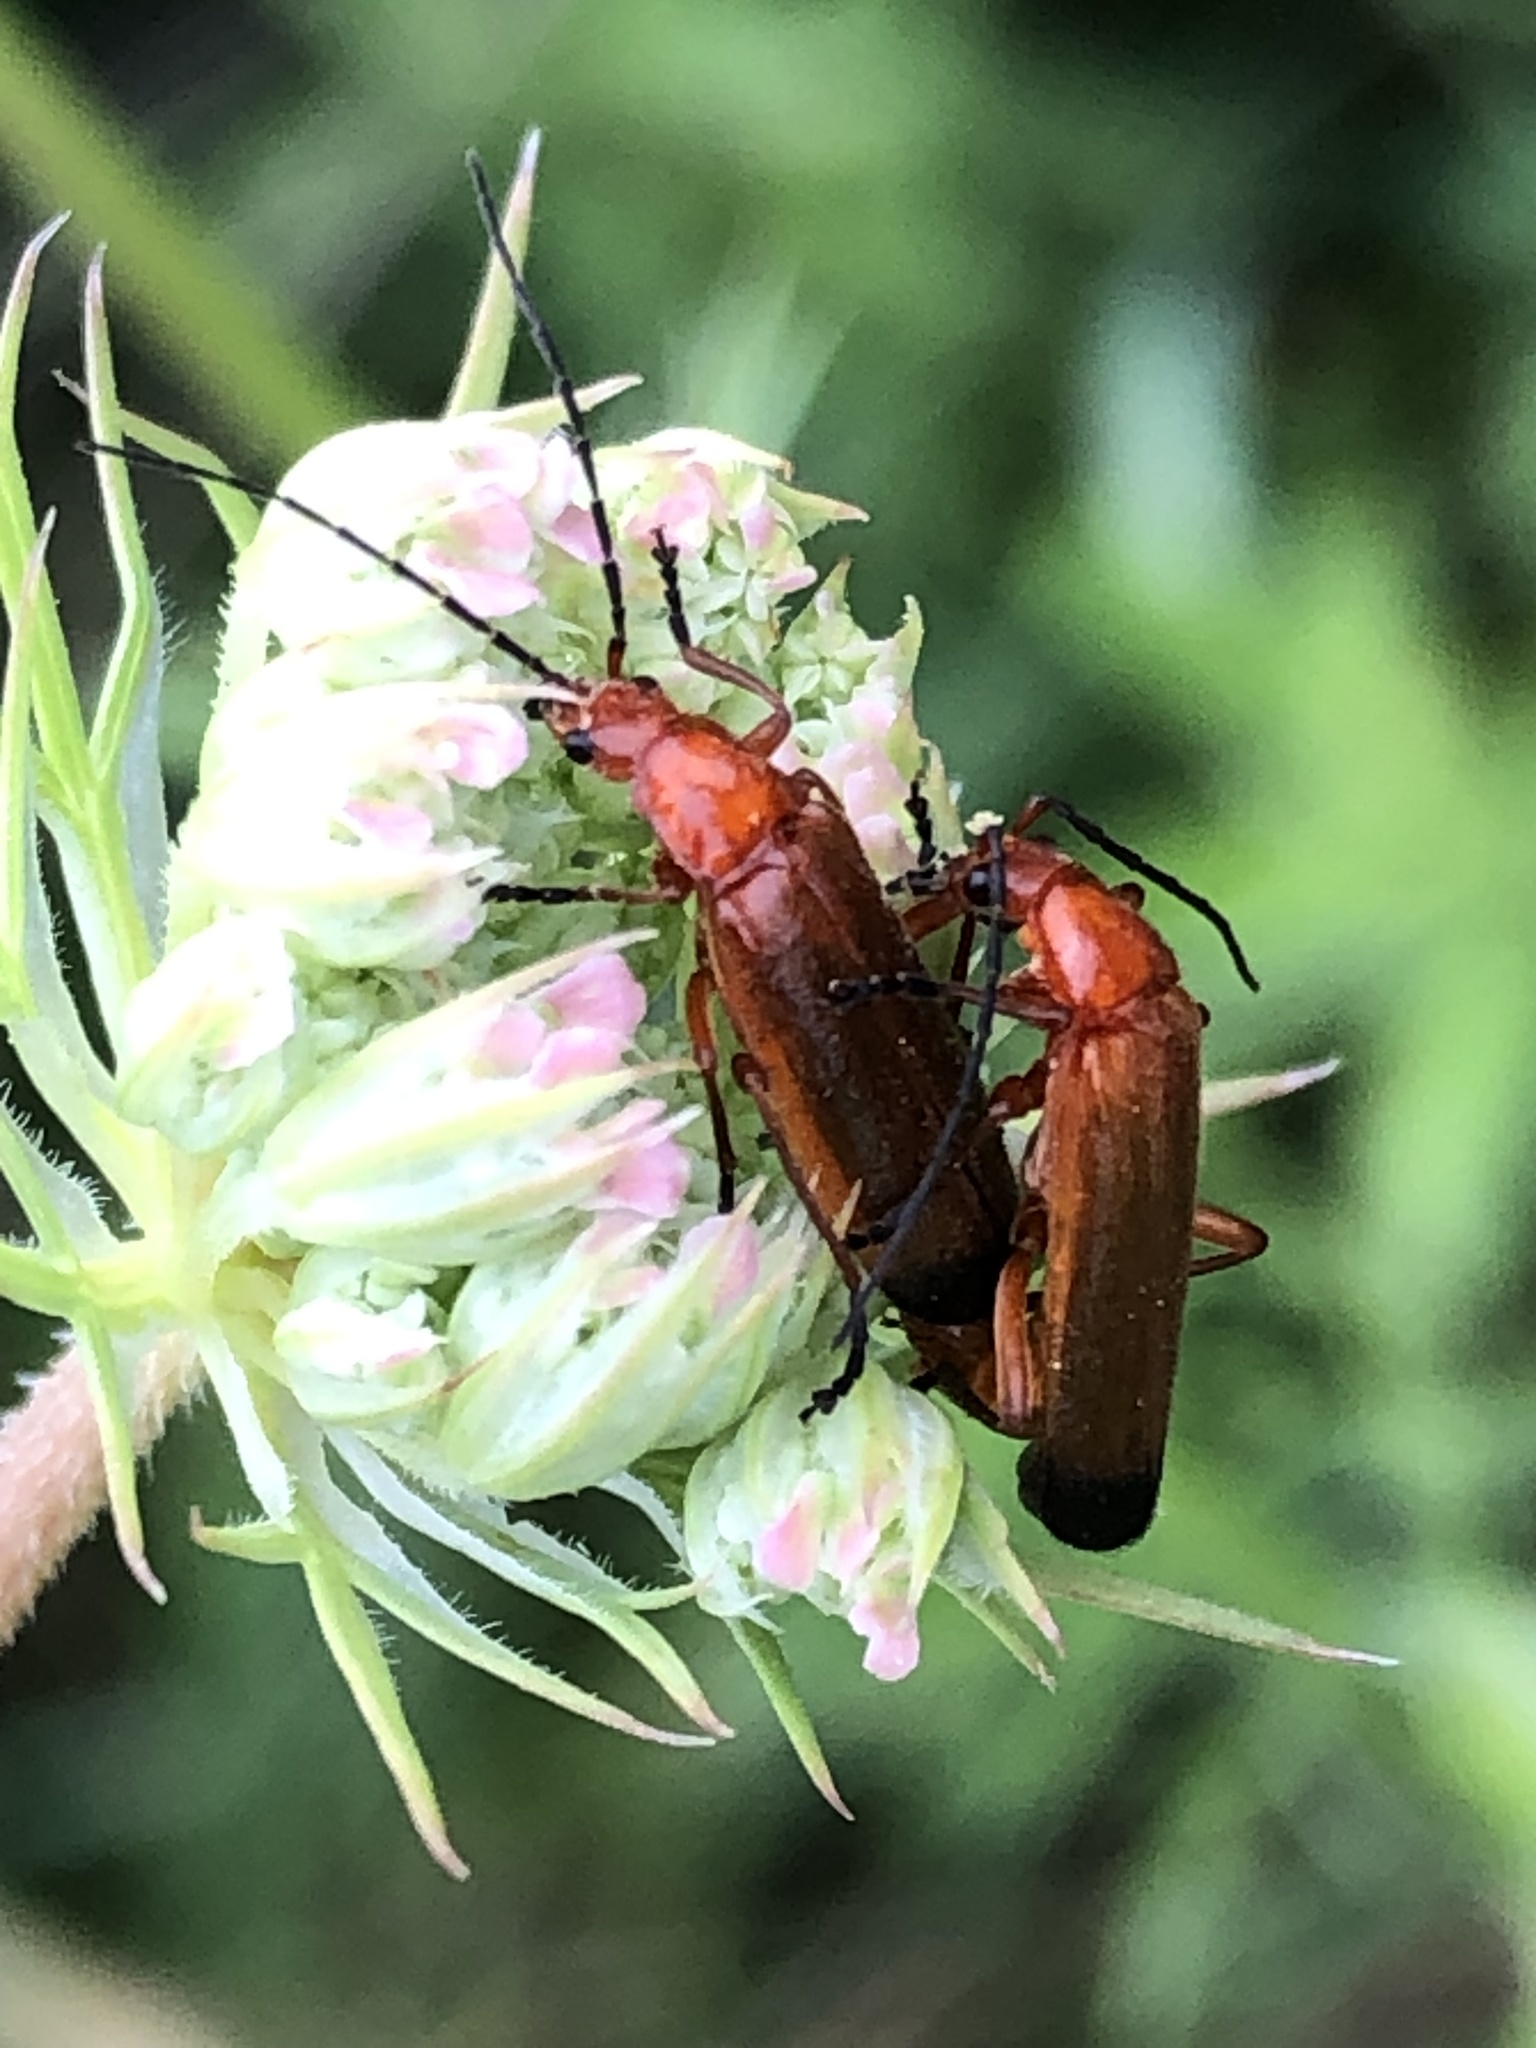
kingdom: Animalia
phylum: Arthropoda
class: Insecta
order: Coleoptera
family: Cantharidae
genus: Rhagonycha
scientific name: Rhagonycha fulva
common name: Common red soldier beetle
